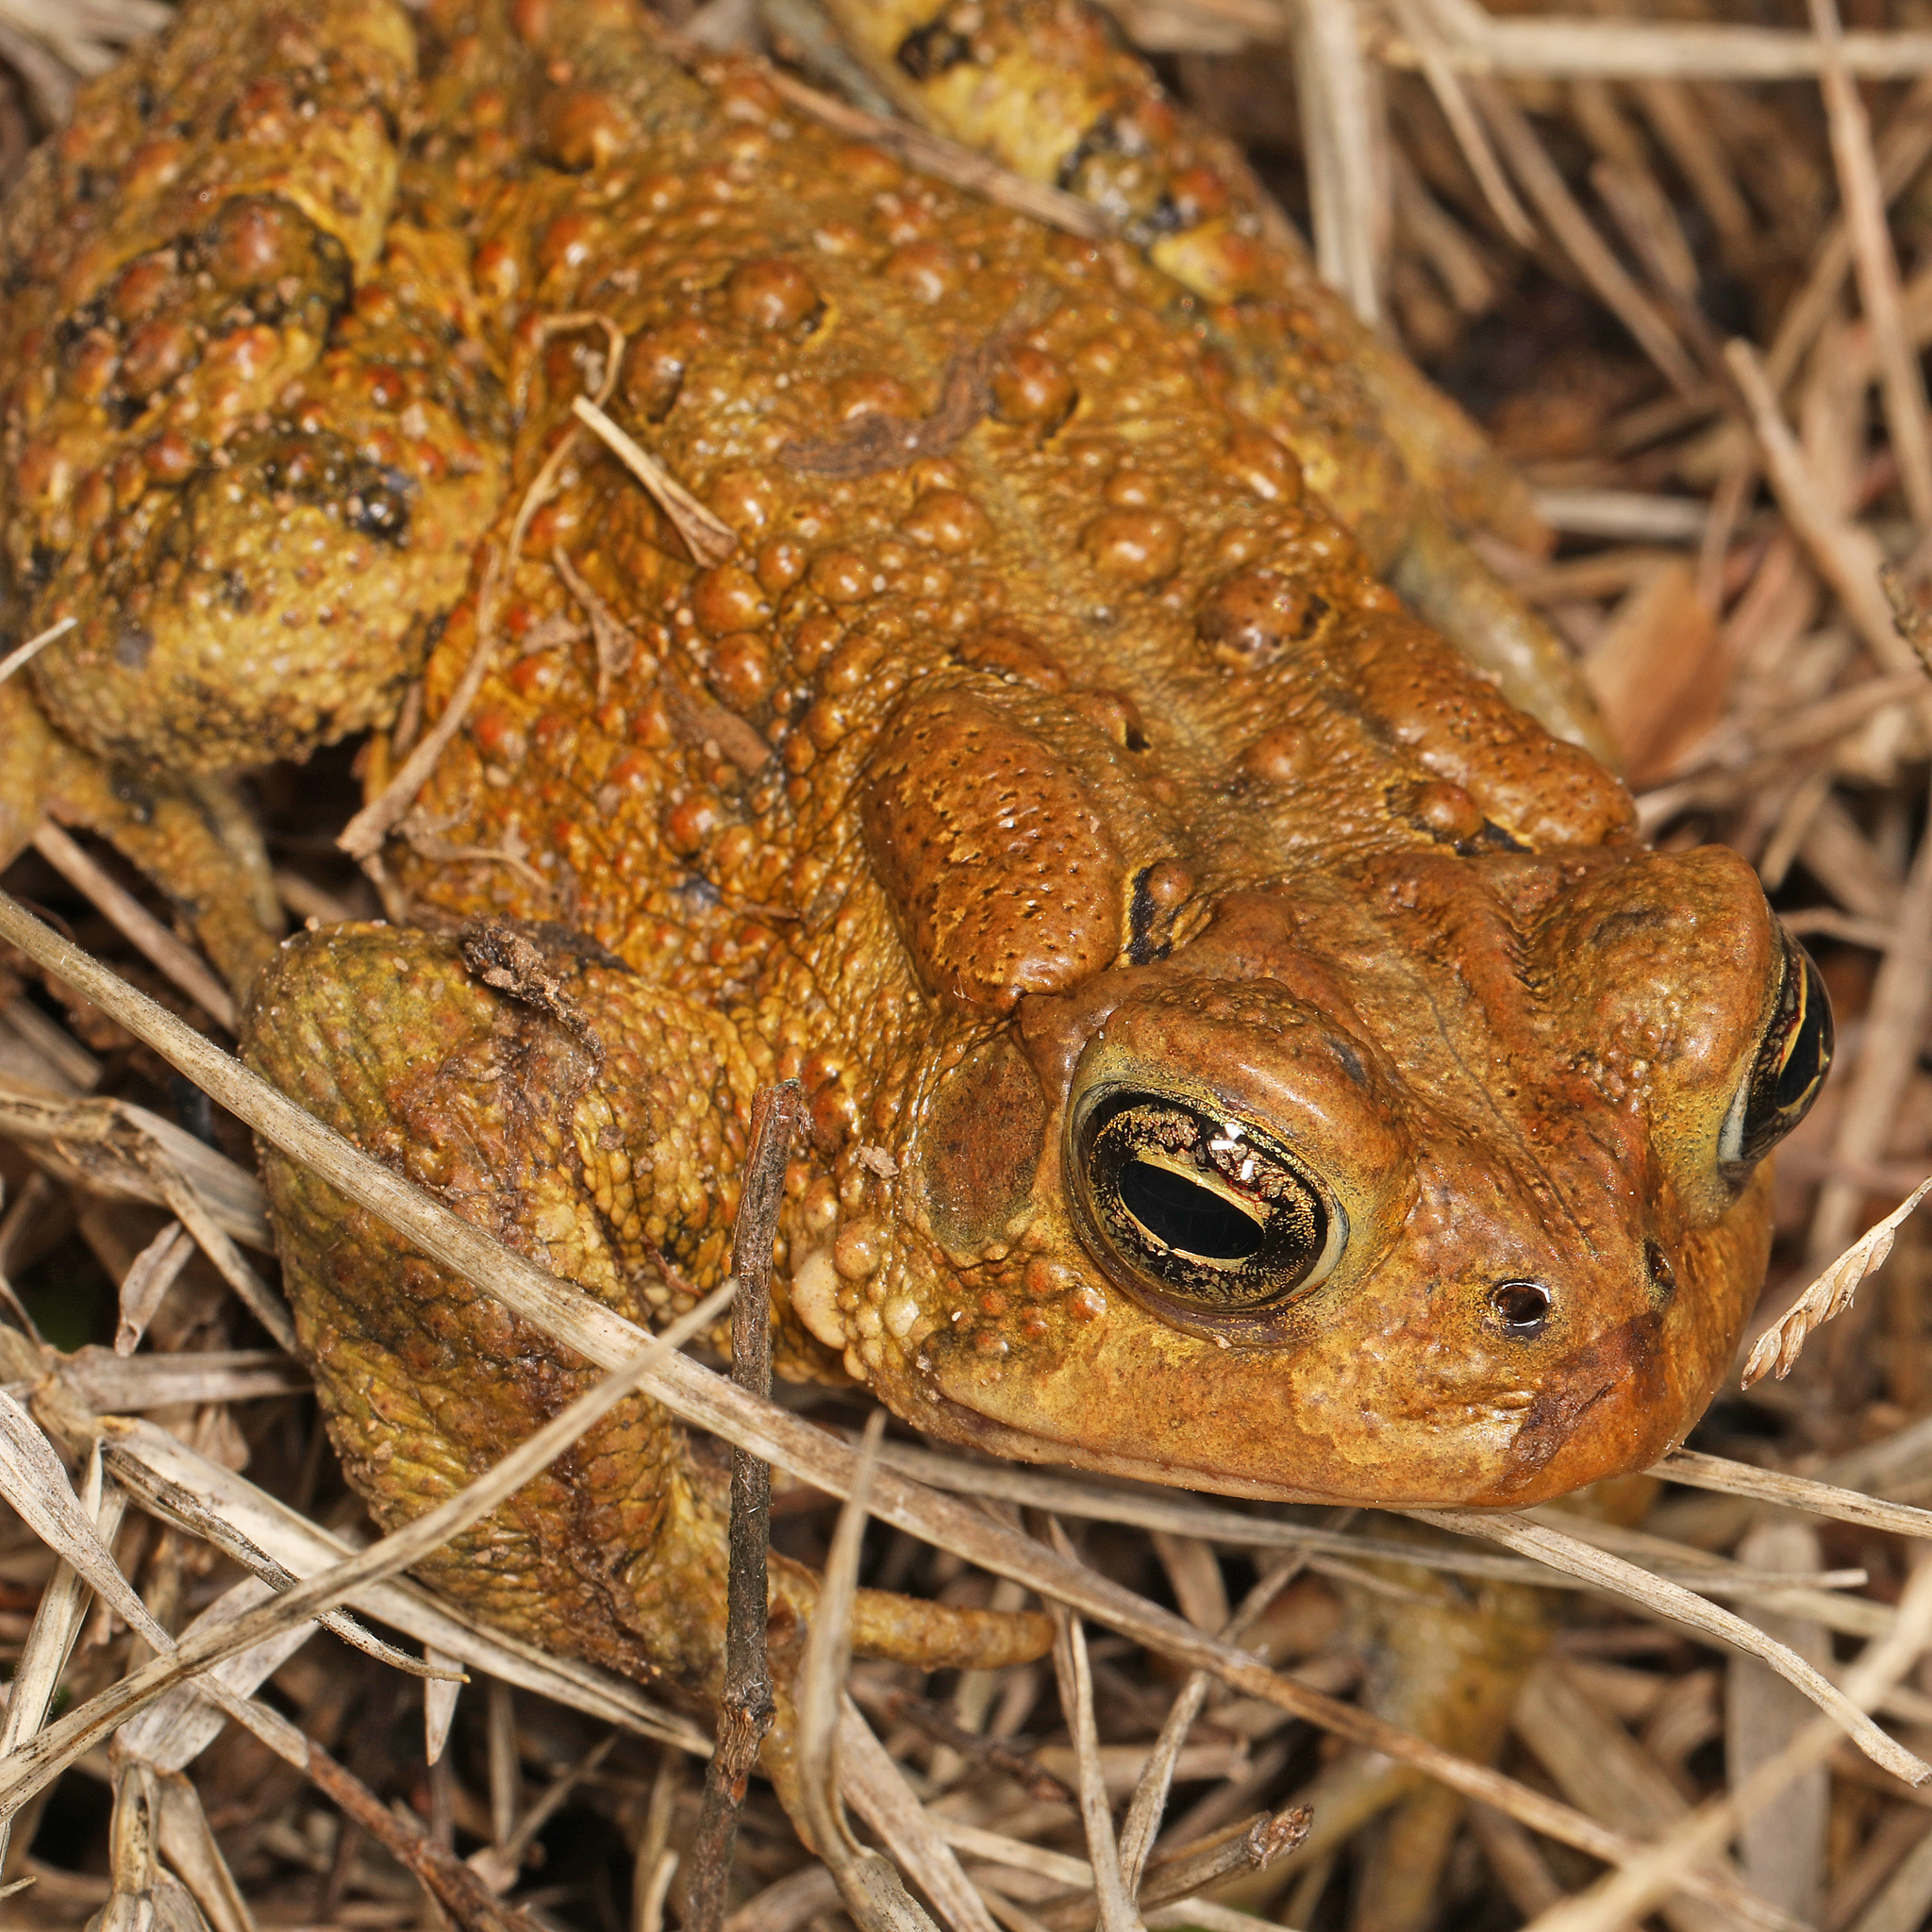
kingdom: Animalia
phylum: Chordata
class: Amphibia
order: Anura
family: Bufonidae
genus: Anaxyrus
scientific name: Anaxyrus americanus
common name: American toad
